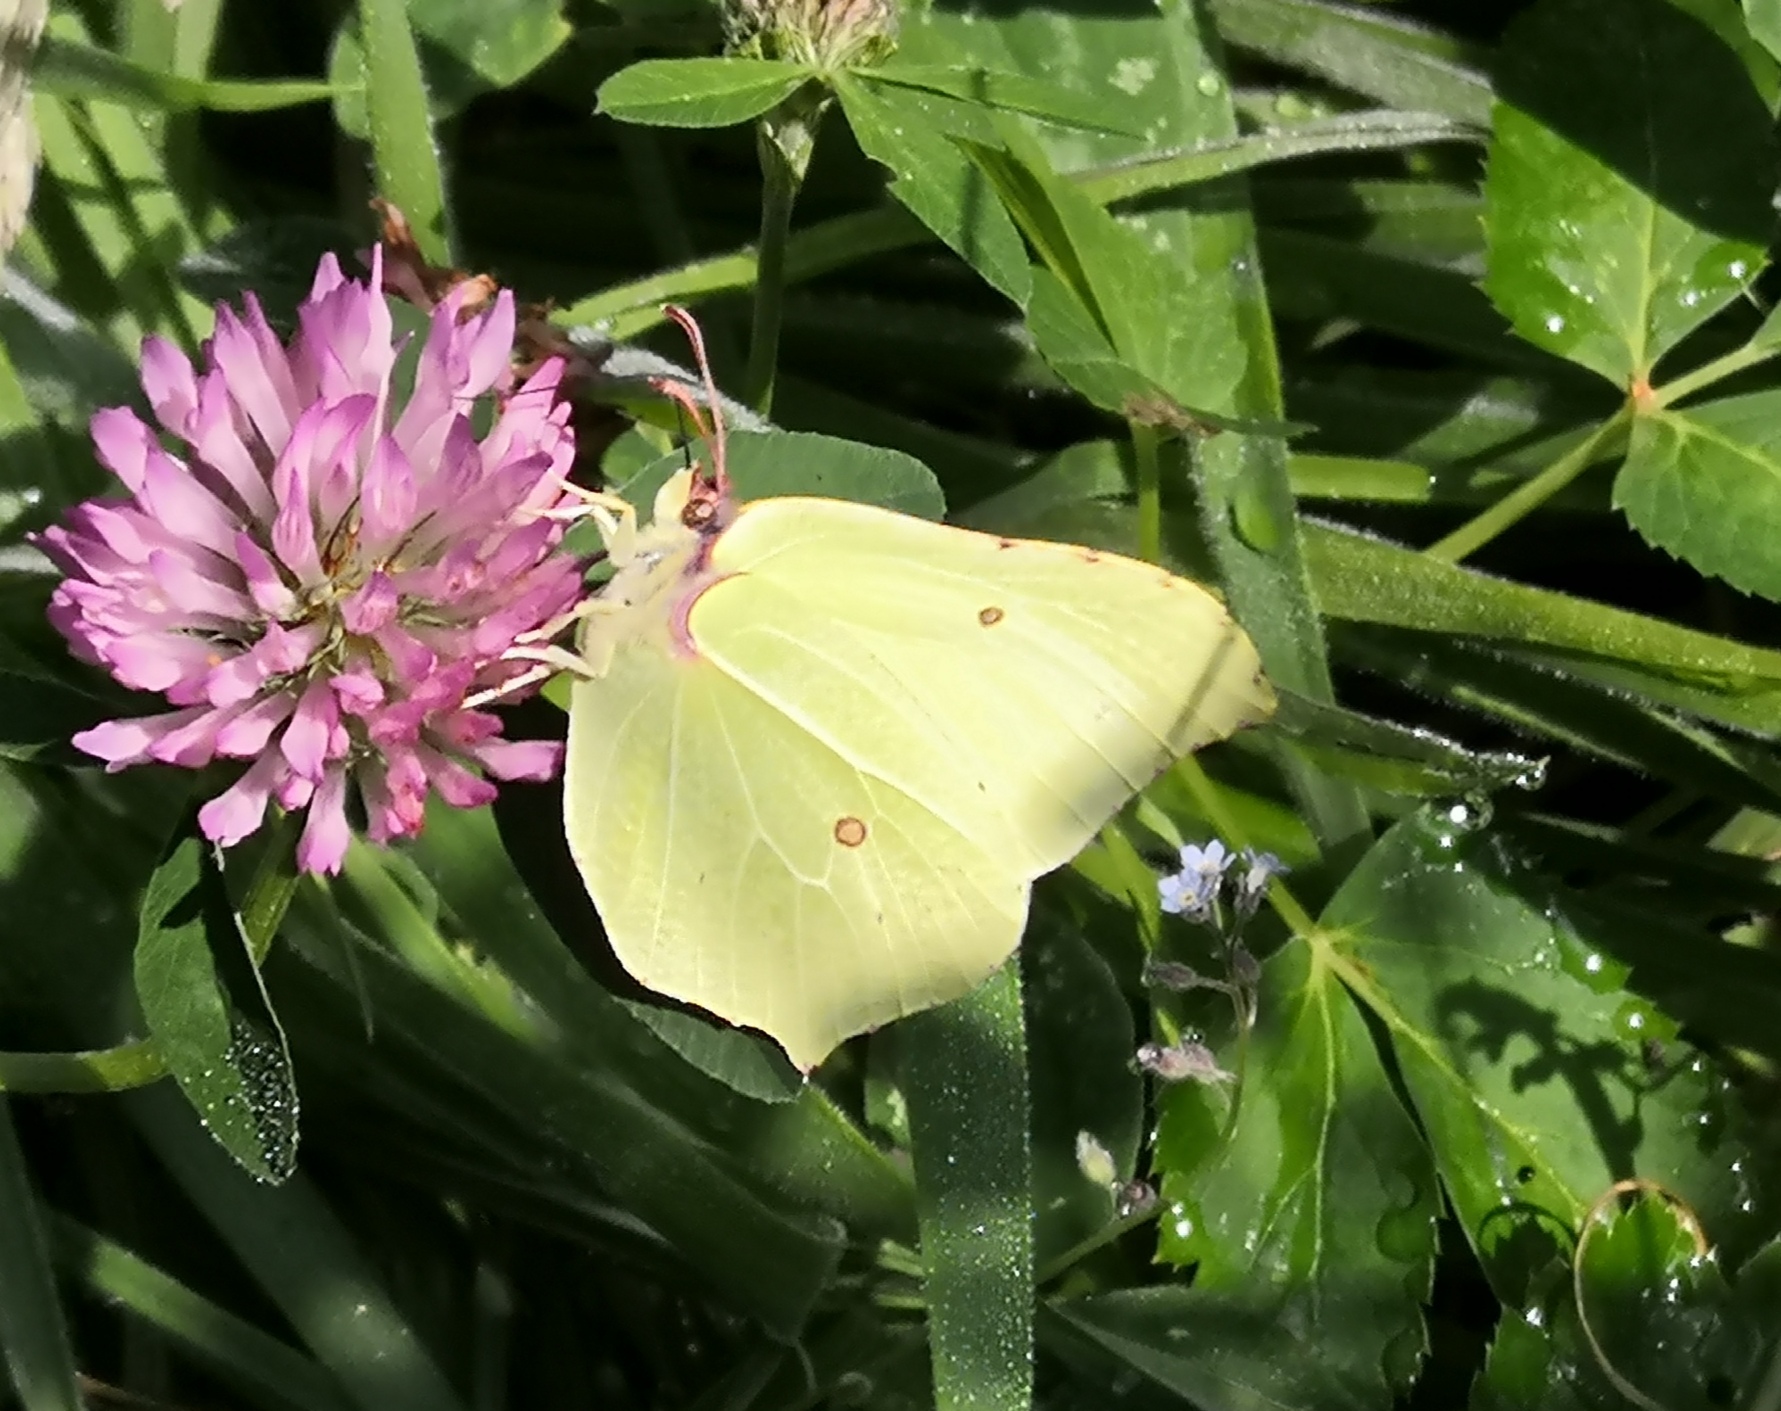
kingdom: Animalia
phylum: Arthropoda
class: Insecta
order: Lepidoptera
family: Pieridae
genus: Gonepteryx
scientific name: Gonepteryx rhamni
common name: Brimstone
